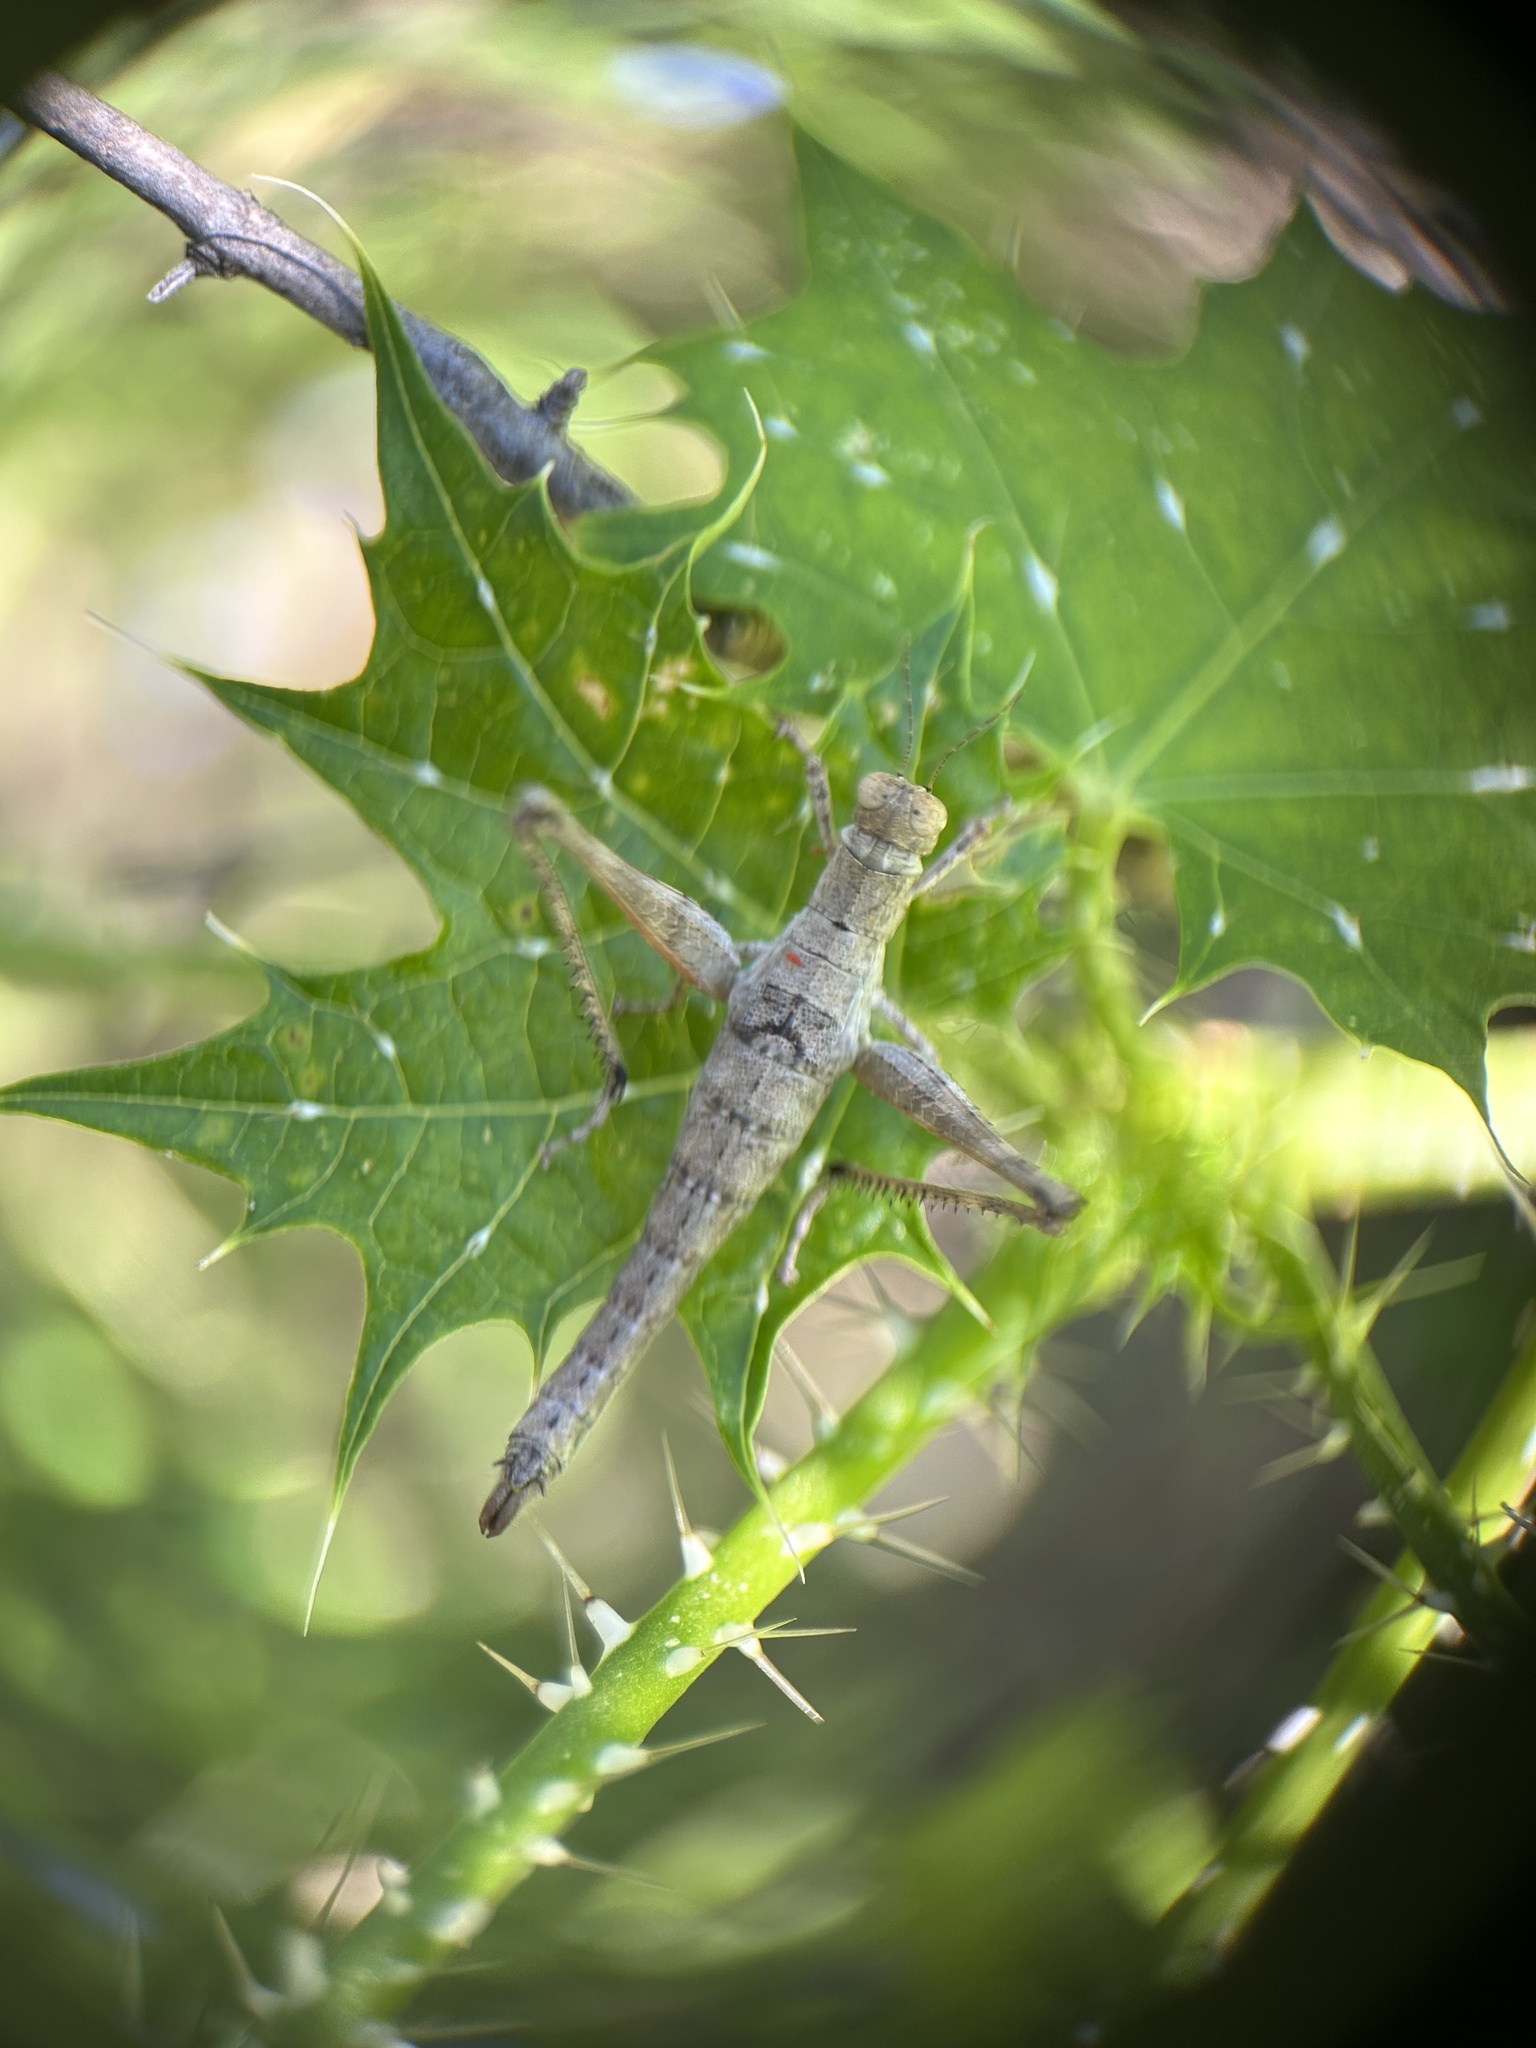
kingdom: Animalia
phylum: Arthropoda
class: Insecta
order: Orthoptera
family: Episactidae
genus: Teicophrys
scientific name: Teicophrys fusiformis
